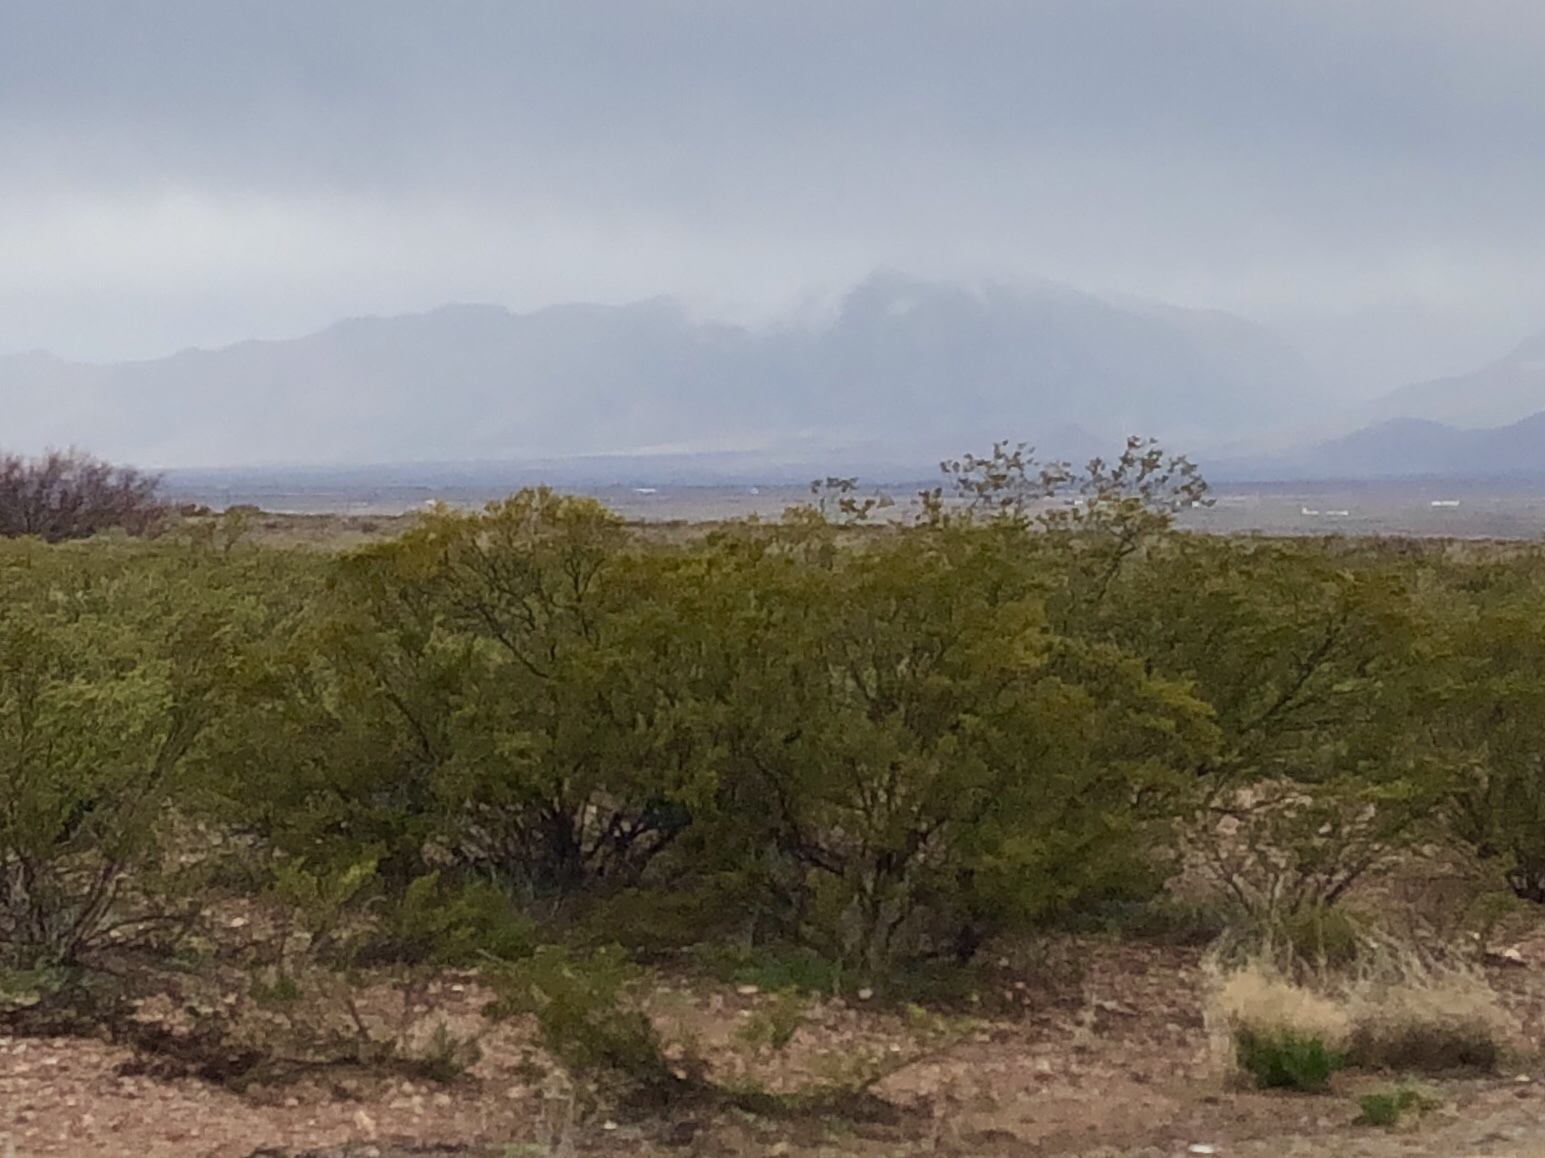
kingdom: Plantae
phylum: Tracheophyta
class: Magnoliopsida
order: Zygophyllales
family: Zygophyllaceae
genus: Larrea
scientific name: Larrea tridentata
